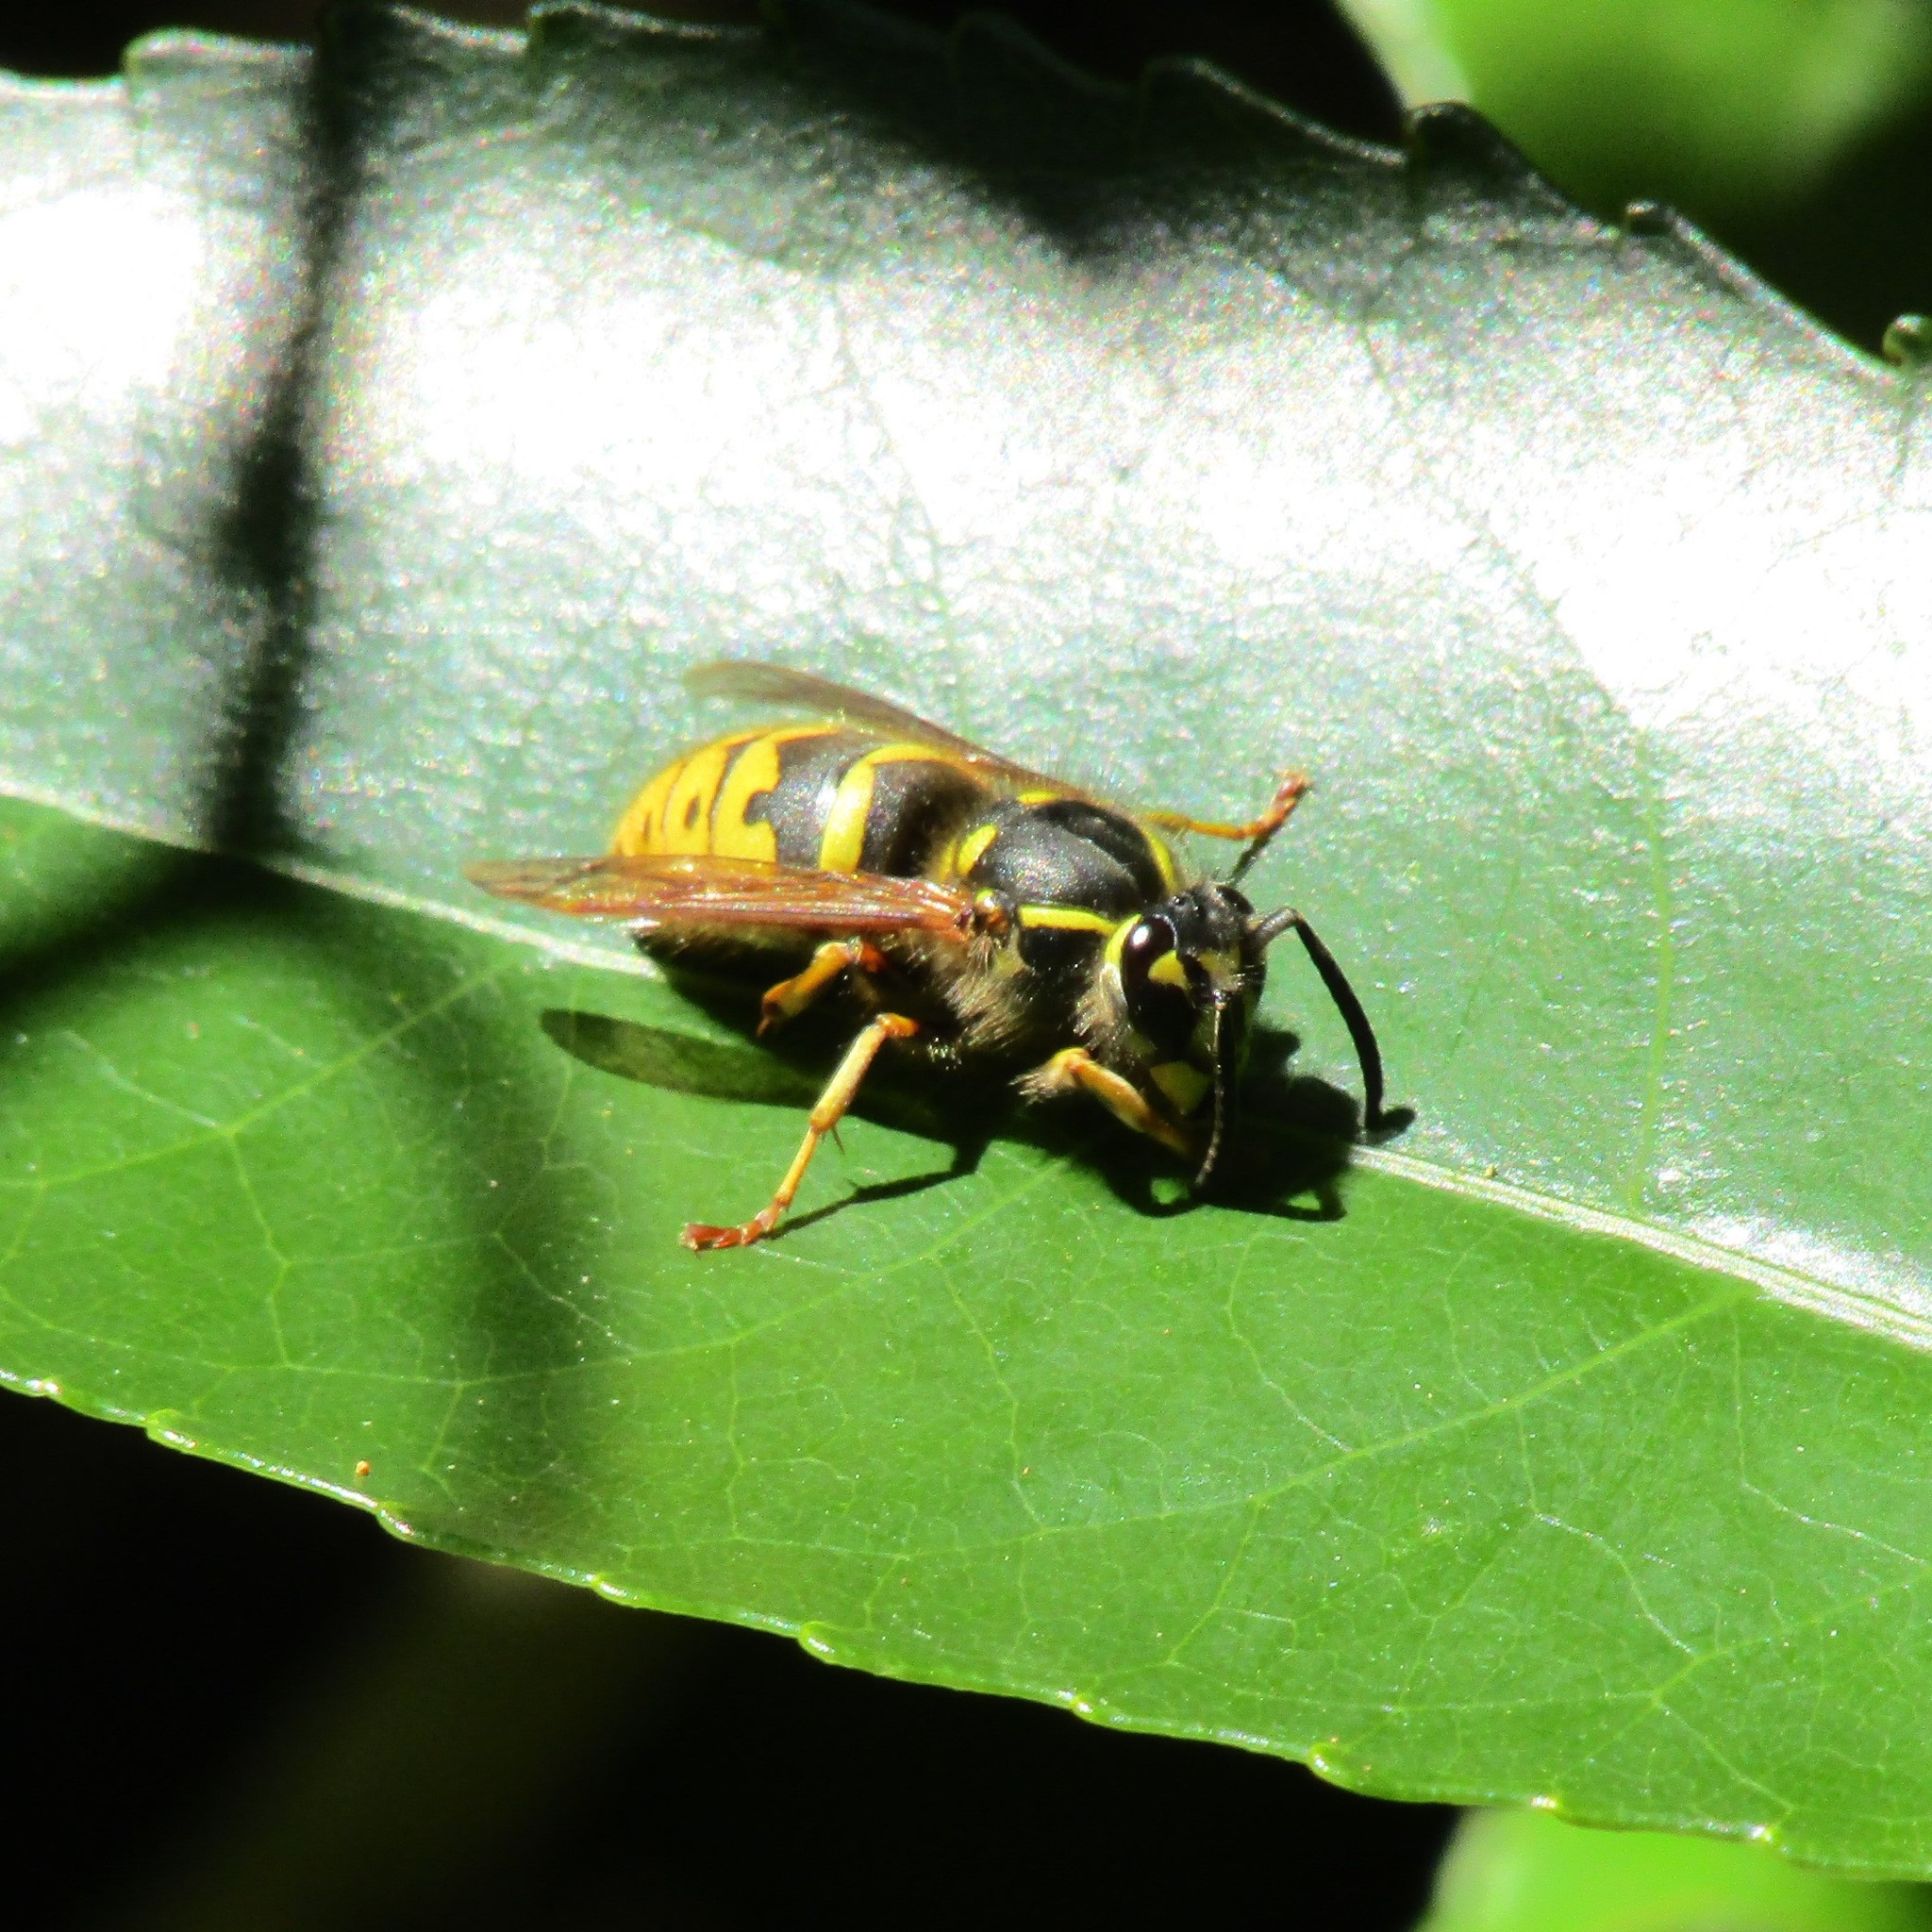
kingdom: Animalia
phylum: Arthropoda
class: Insecta
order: Hymenoptera
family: Vespidae
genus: Vespula
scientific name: Vespula vulgaris
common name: Common wasp
